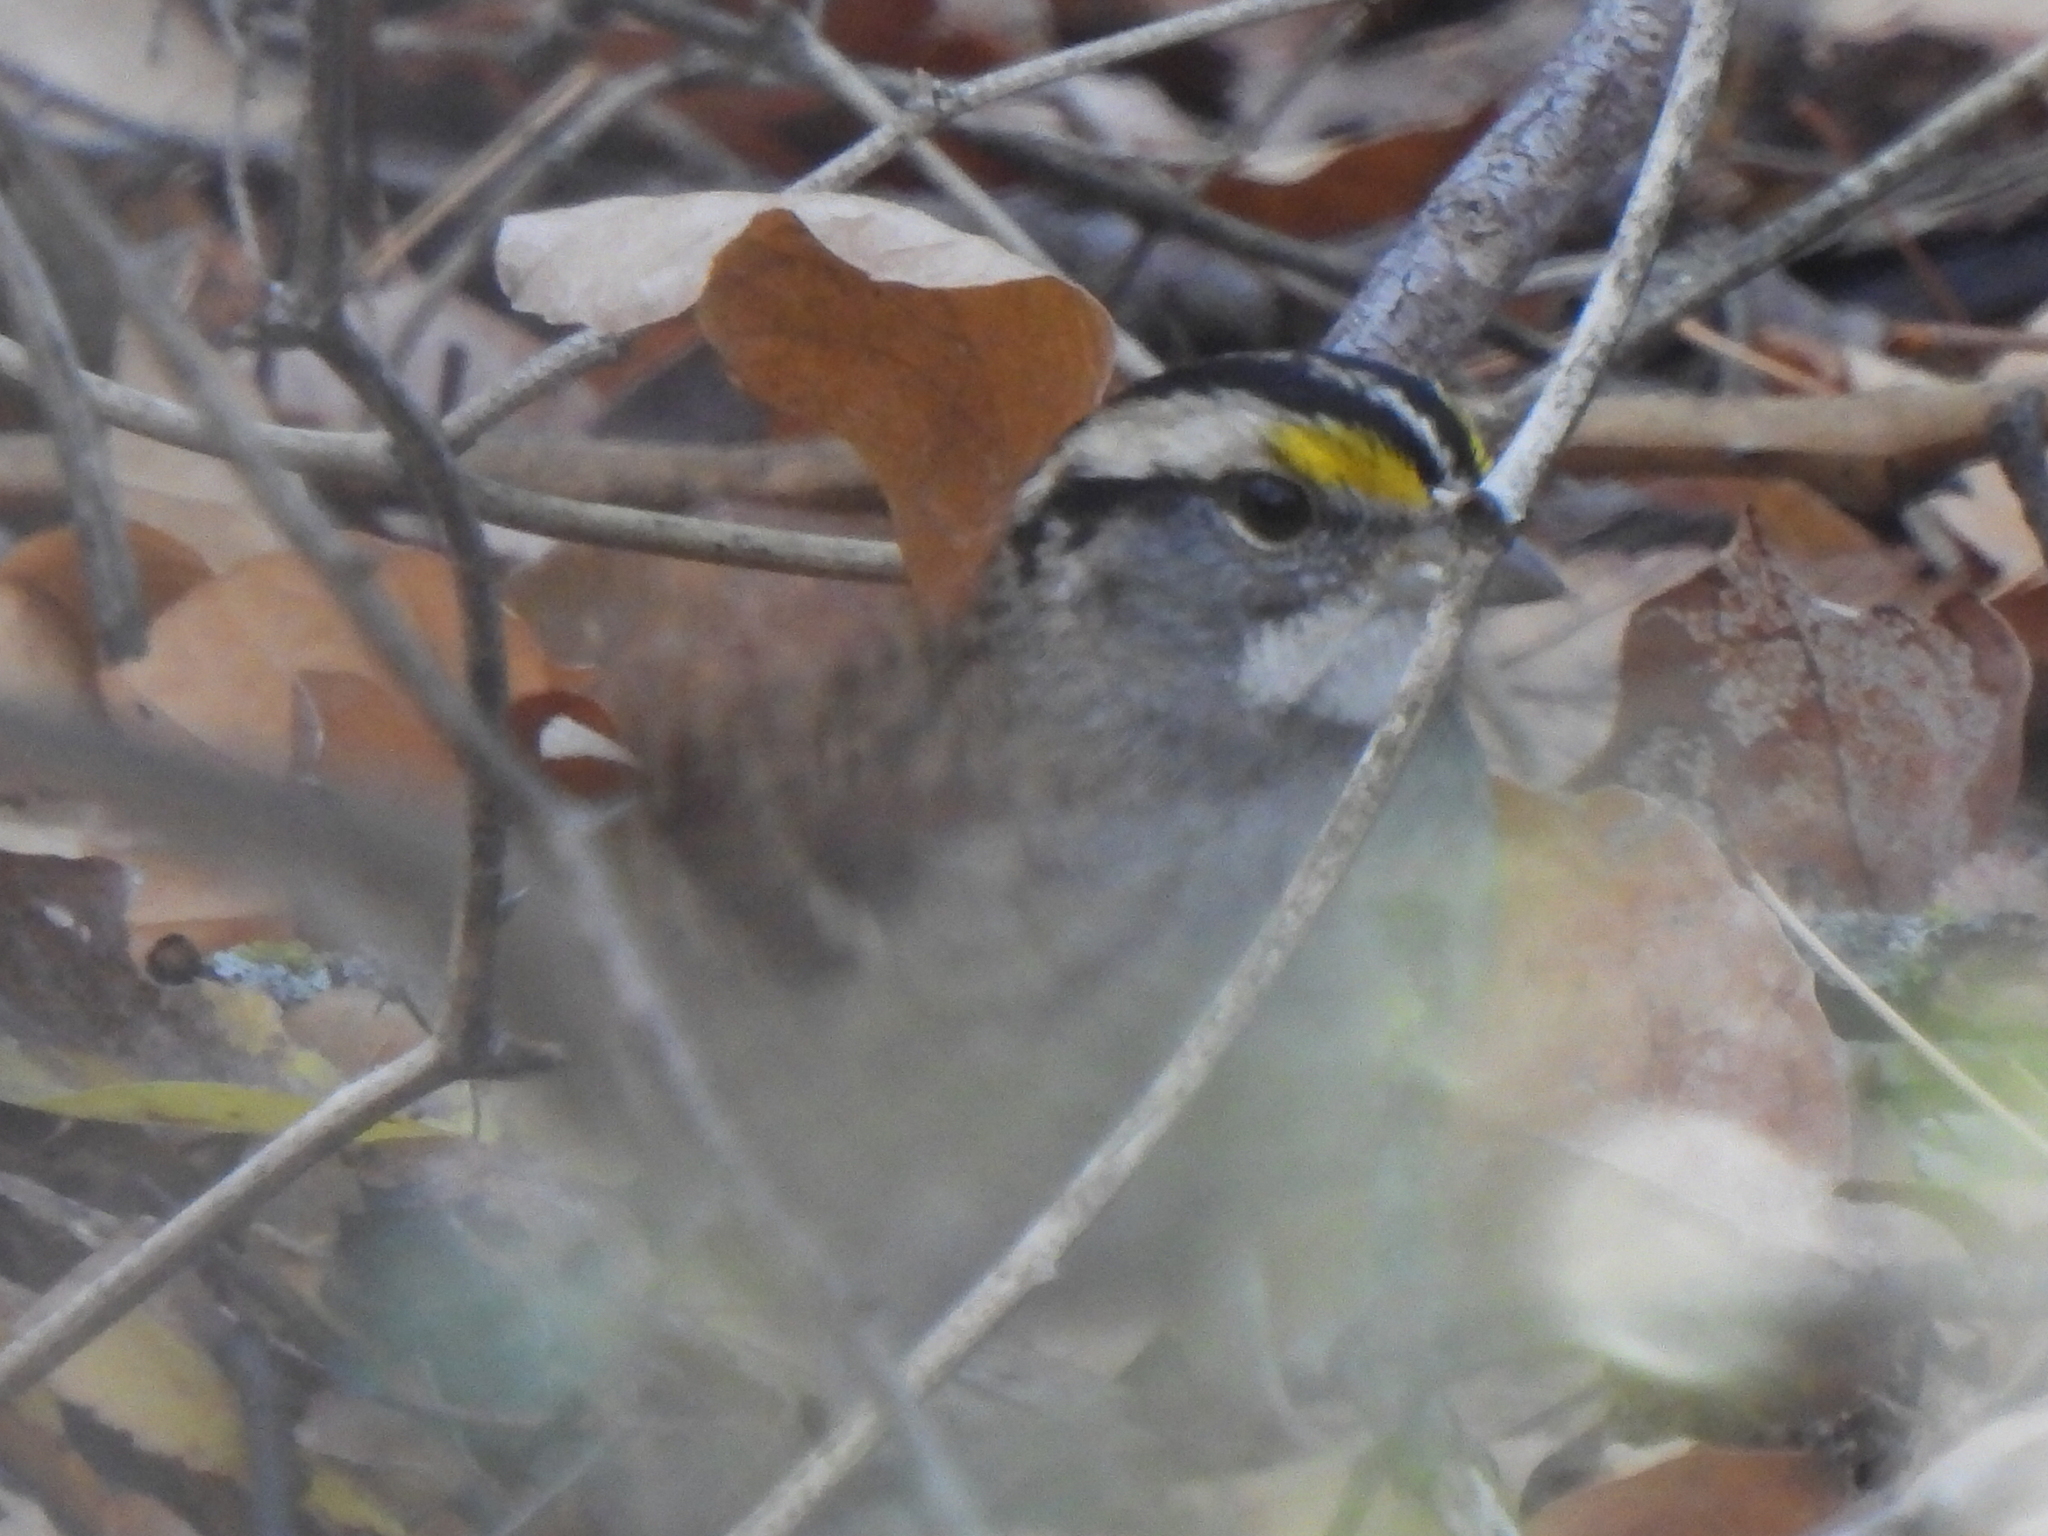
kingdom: Animalia
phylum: Chordata
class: Aves
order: Passeriformes
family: Passerellidae
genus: Zonotrichia
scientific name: Zonotrichia albicollis
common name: White-throated sparrow
